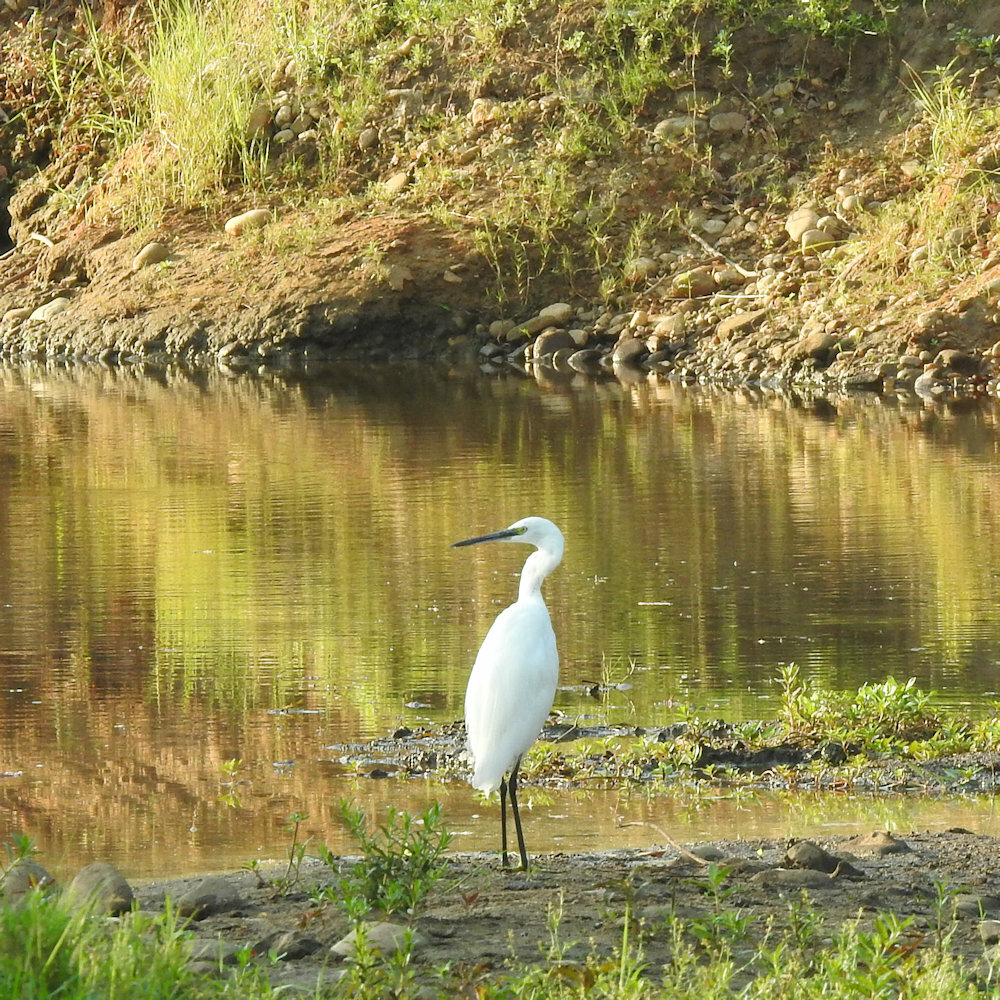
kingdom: Animalia
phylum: Chordata
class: Aves
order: Pelecaniformes
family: Ardeidae
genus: Egretta
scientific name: Egretta garzetta
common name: Little egret
